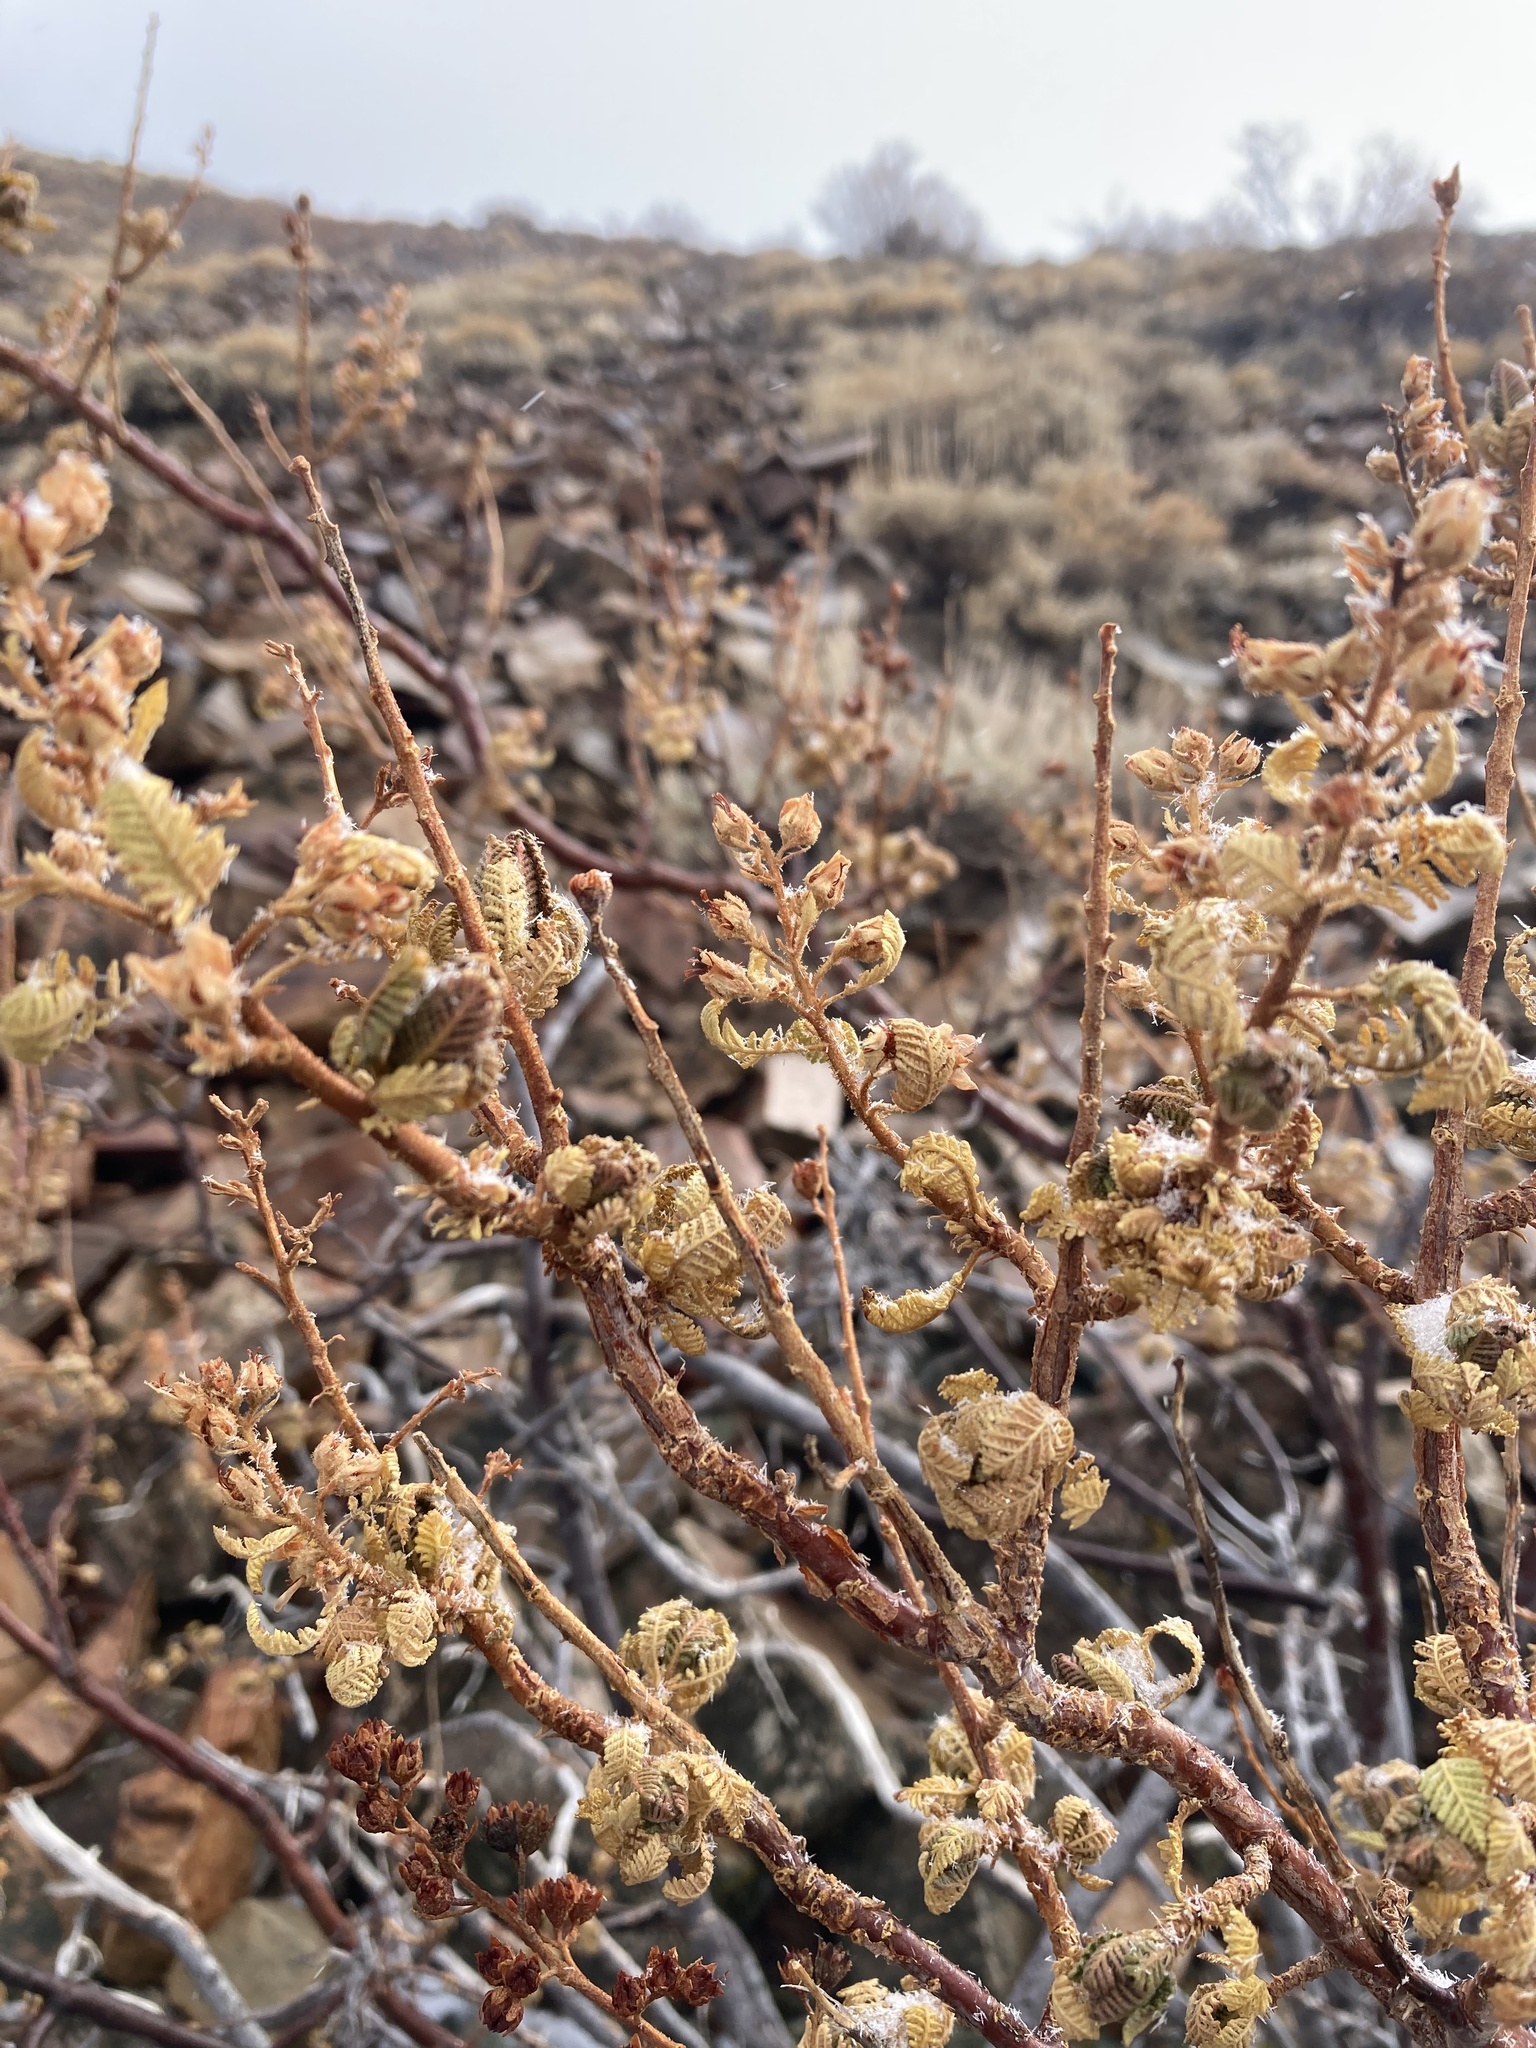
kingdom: Plantae
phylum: Tracheophyta
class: Magnoliopsida
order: Rosales
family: Rosaceae
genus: Chamaebatiaria
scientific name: Chamaebatiaria millefolium
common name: Fernbush
